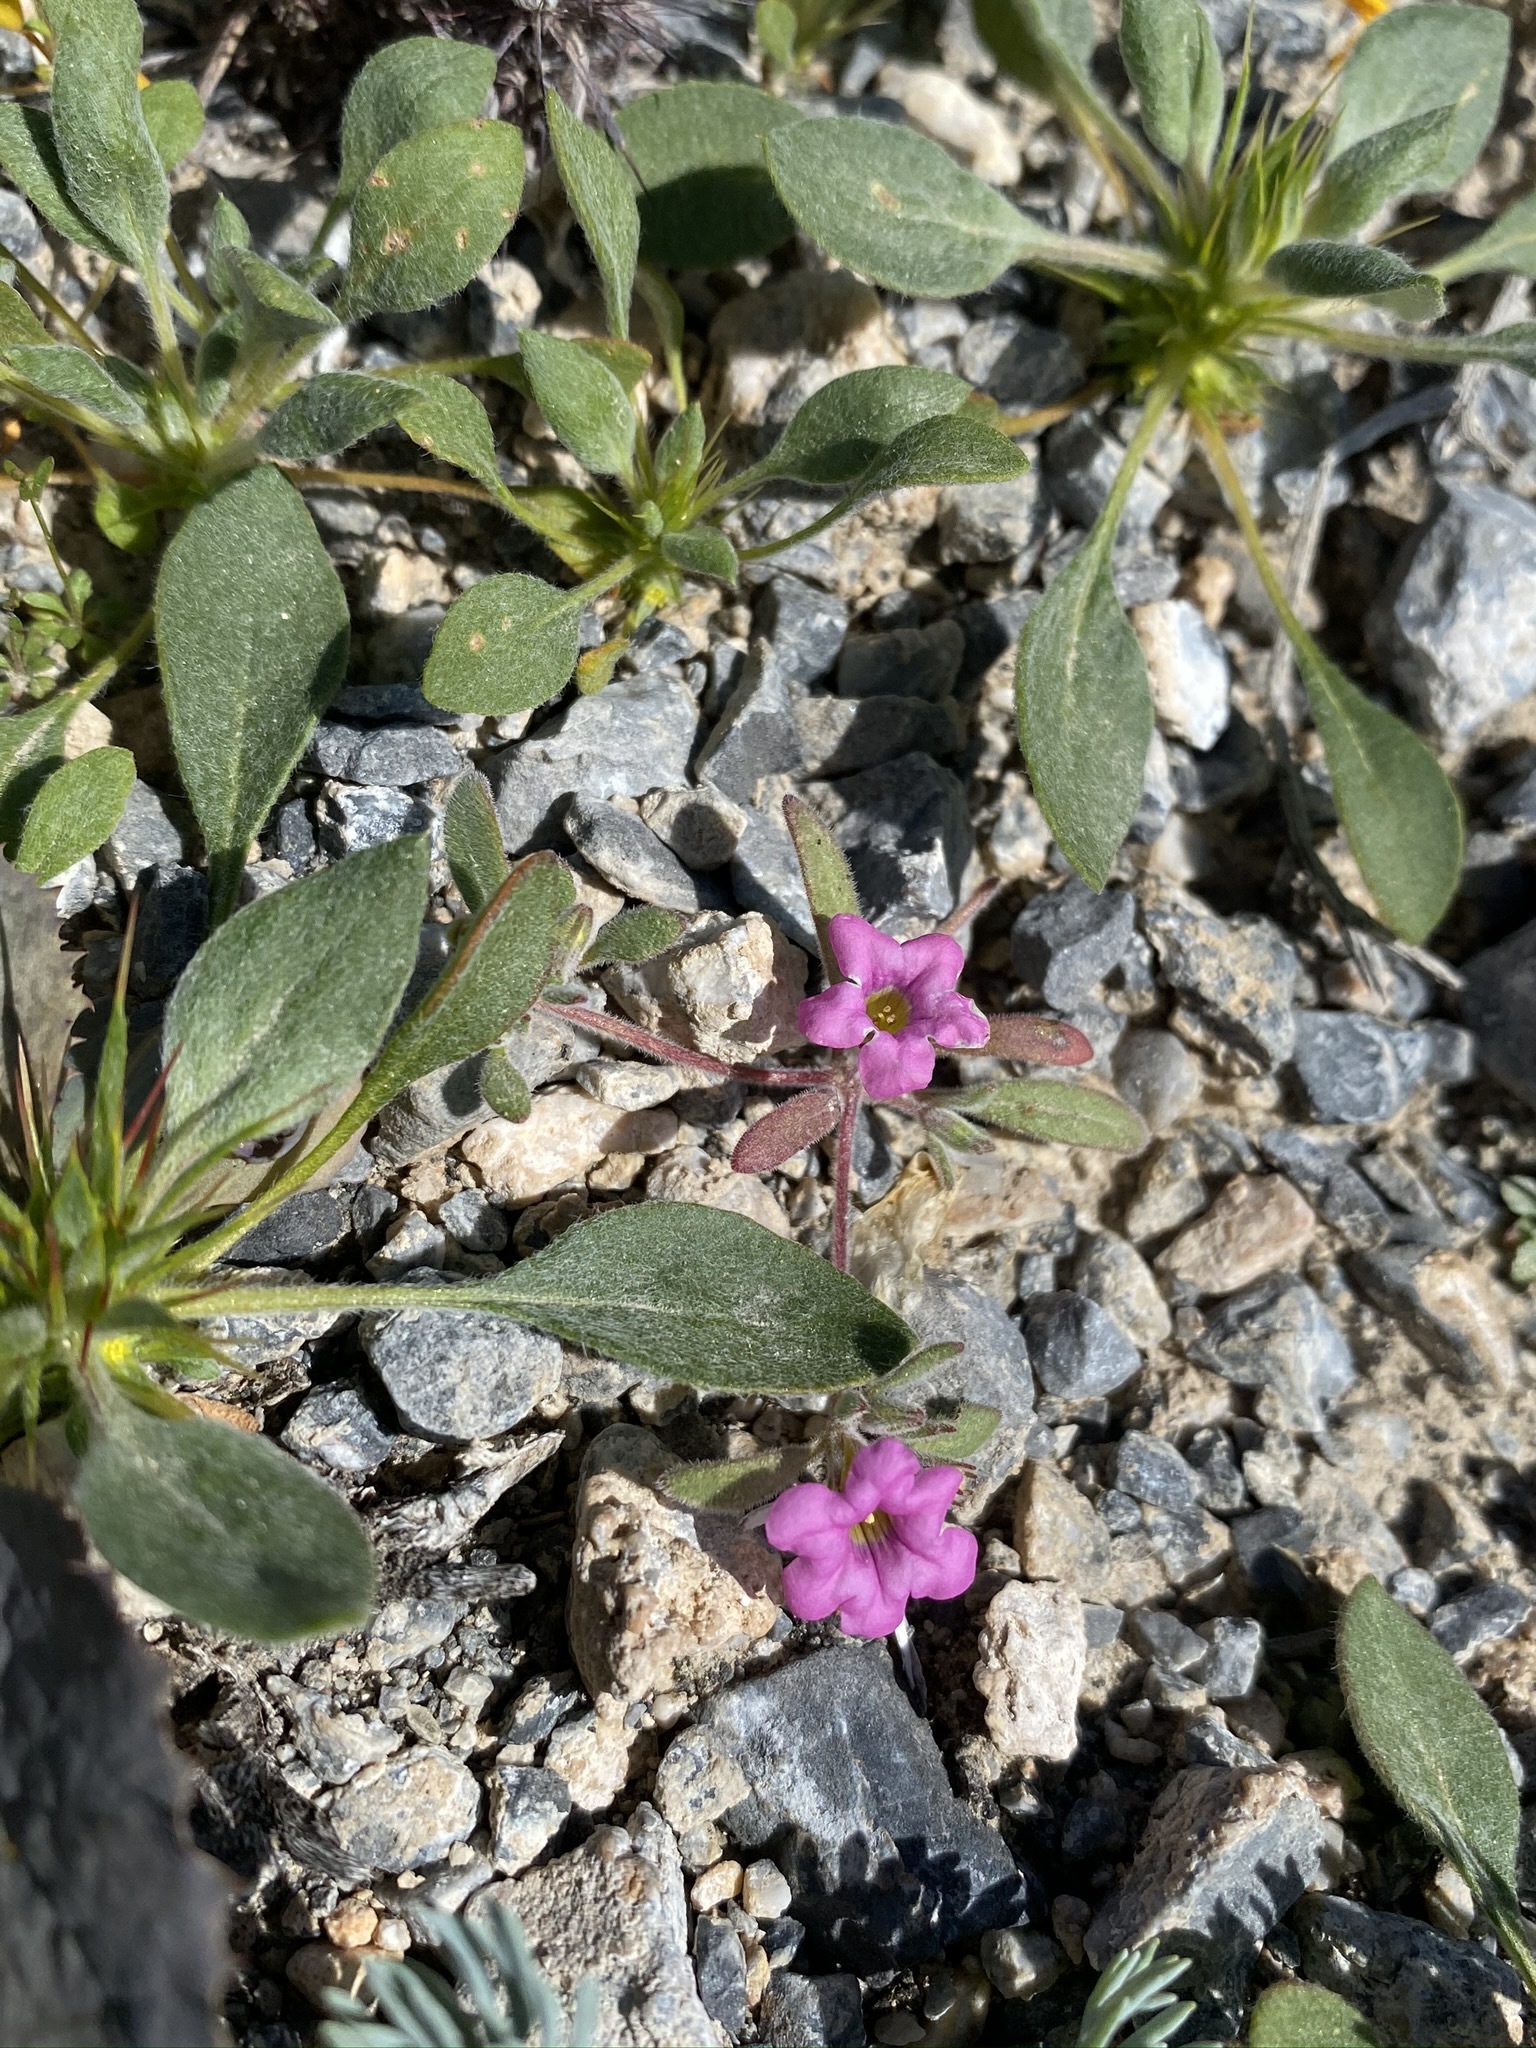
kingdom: Plantae
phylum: Tracheophyta
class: Magnoliopsida
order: Boraginales
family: Namaceae
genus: Nama
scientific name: Nama demissa
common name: Leafy nama
